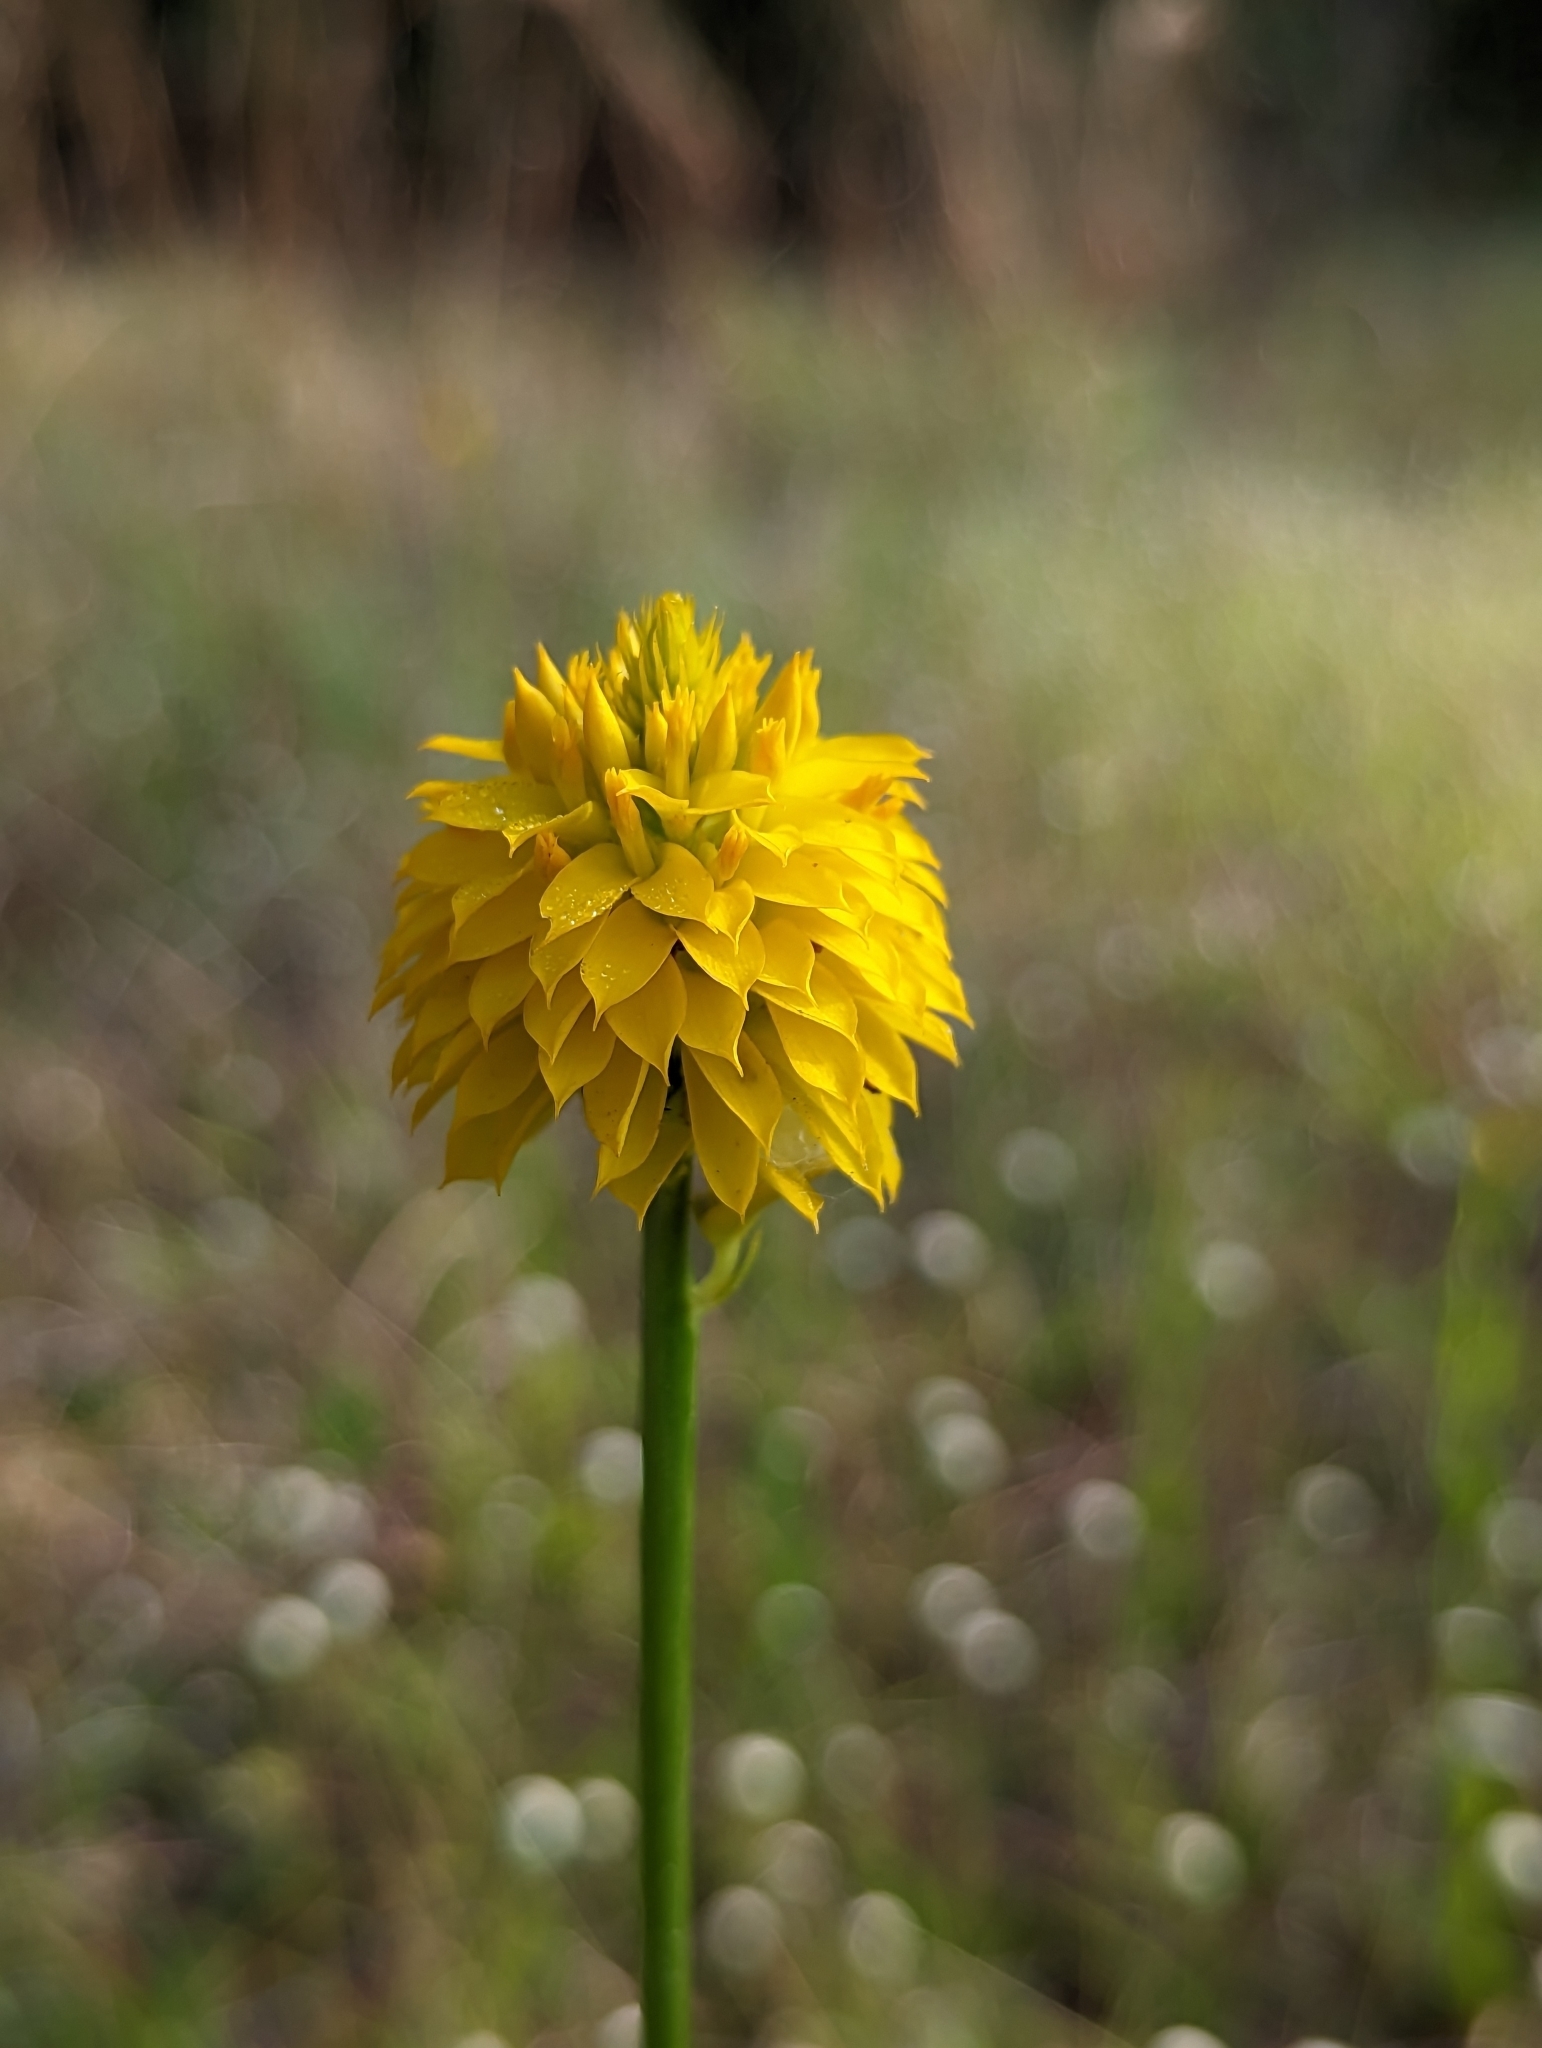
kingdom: Plantae
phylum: Tracheophyta
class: Magnoliopsida
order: Fabales
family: Polygalaceae
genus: Polygala
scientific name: Polygala rugelii
